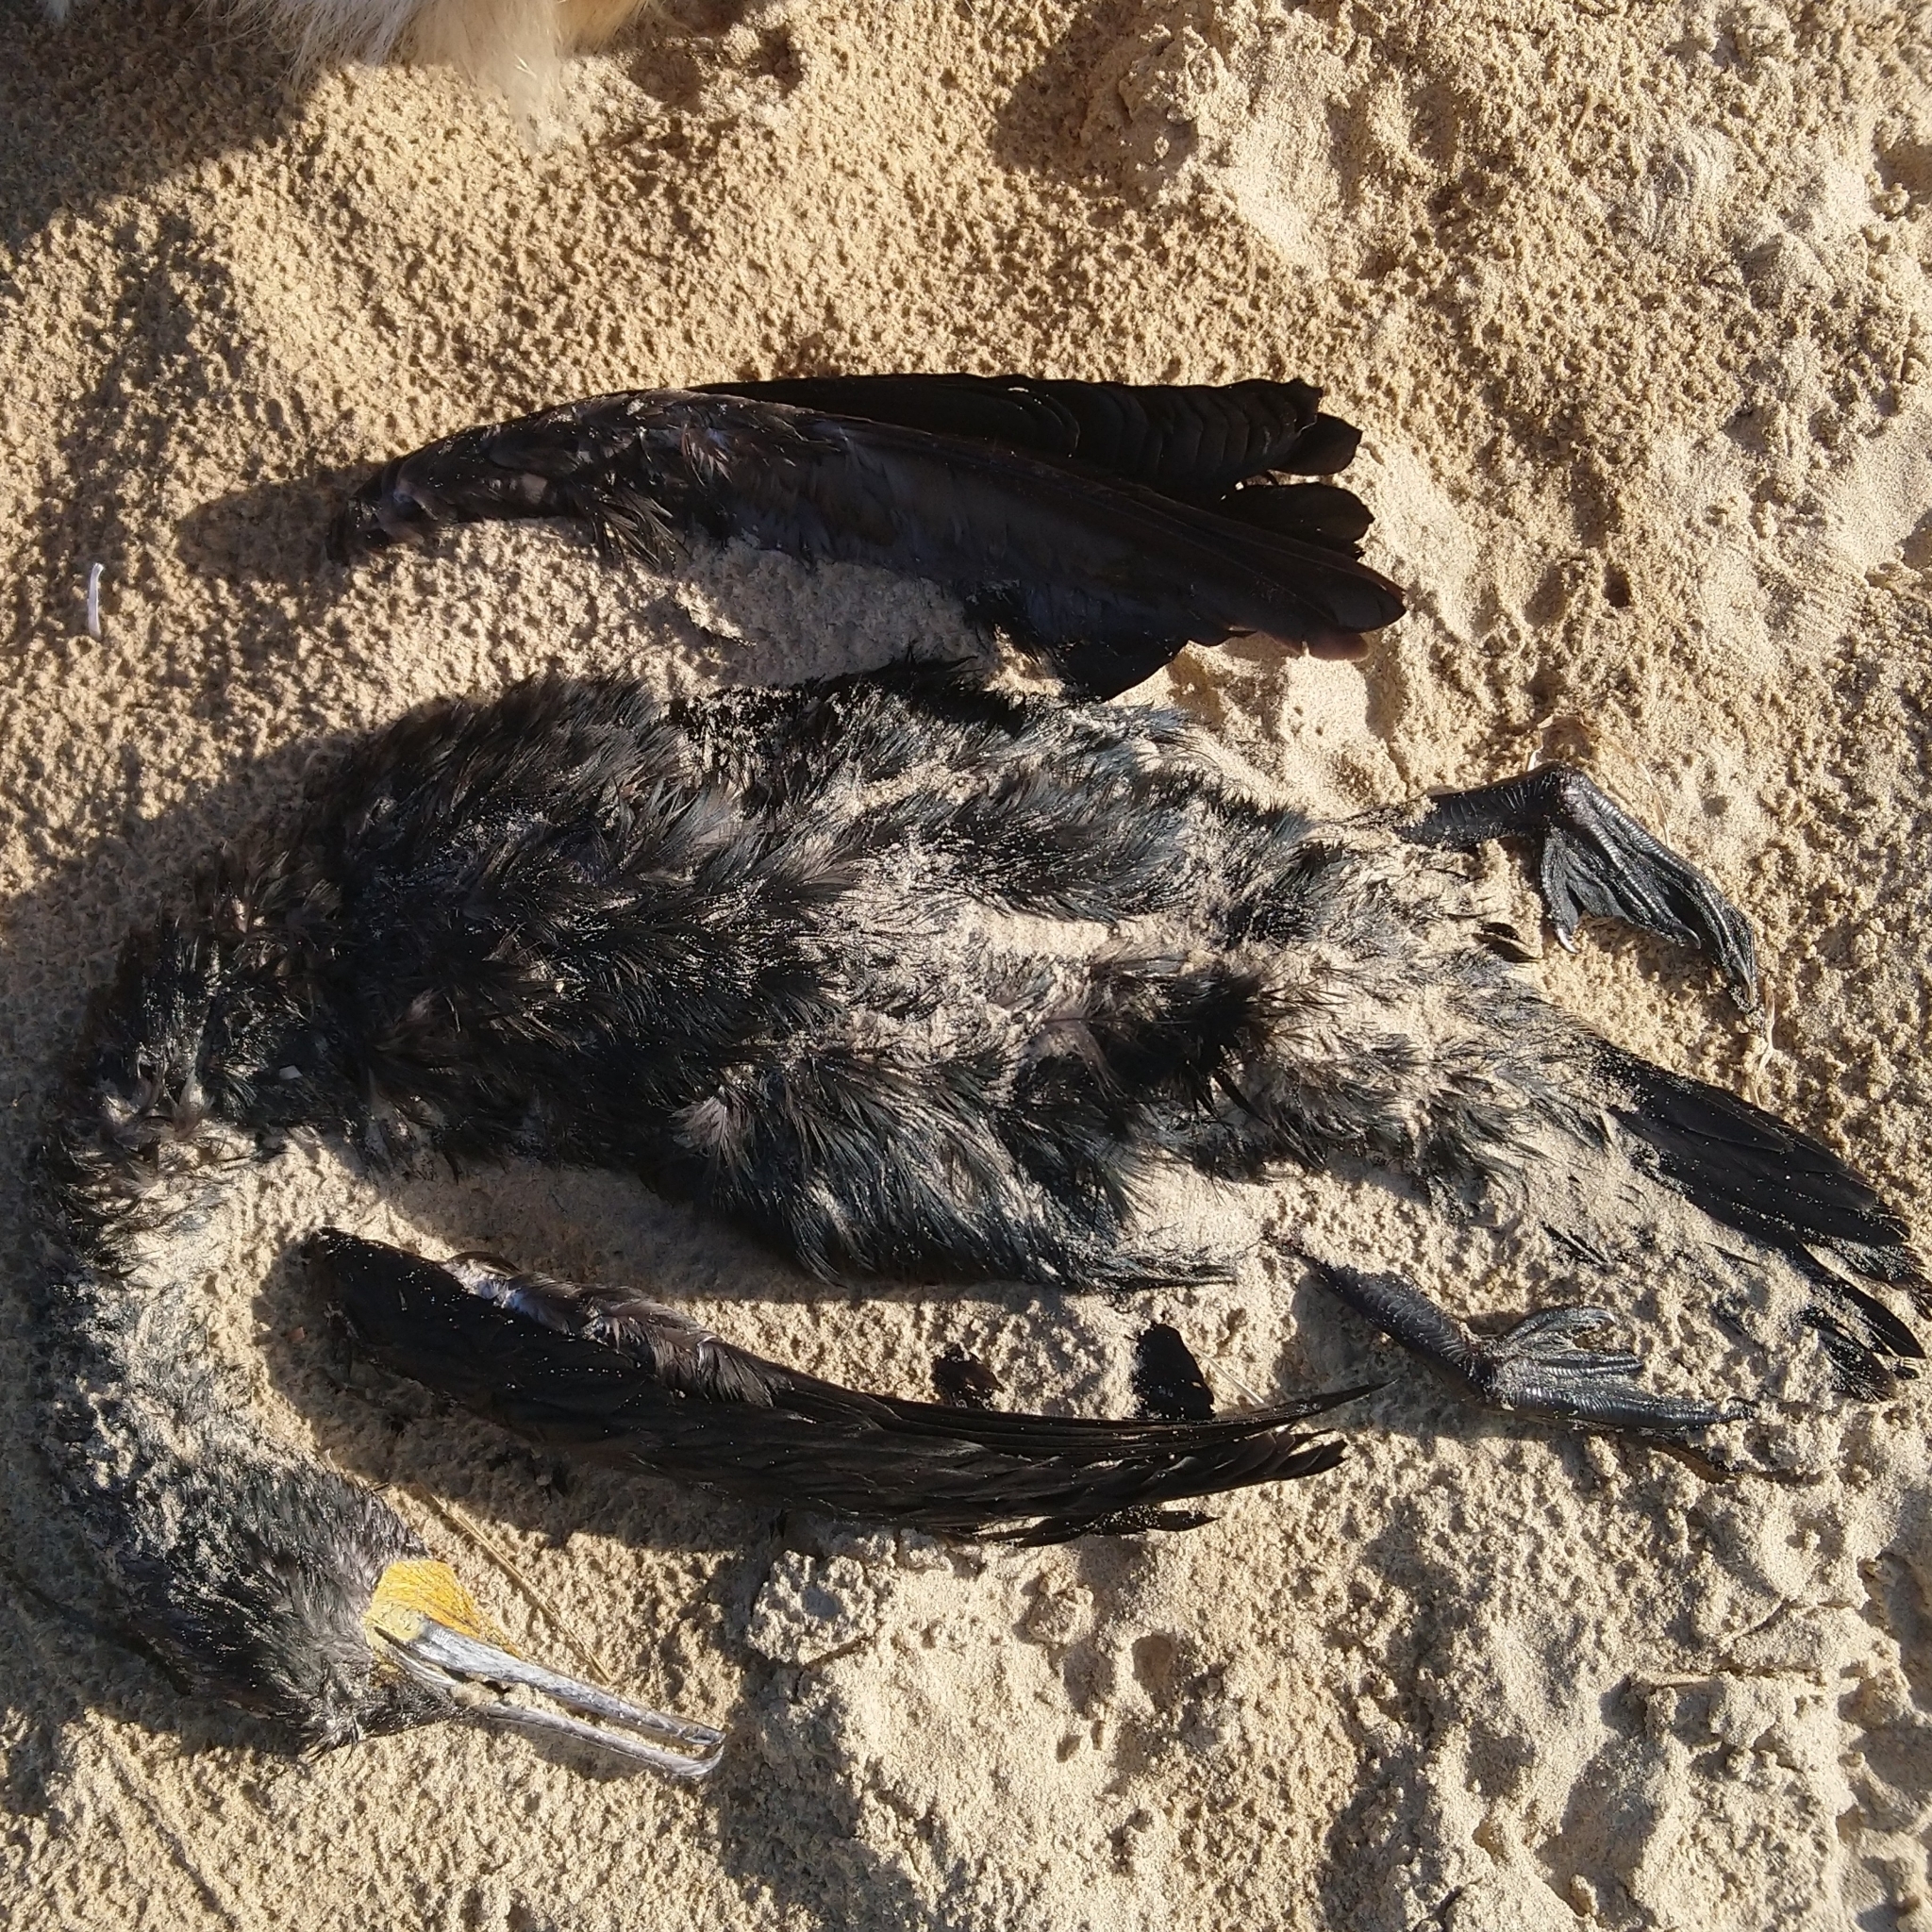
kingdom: Animalia
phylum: Chordata
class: Aves
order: Suliformes
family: Phalacrocoracidae
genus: Phalacrocorax
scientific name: Phalacrocorax capensis
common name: Cape cormorant
